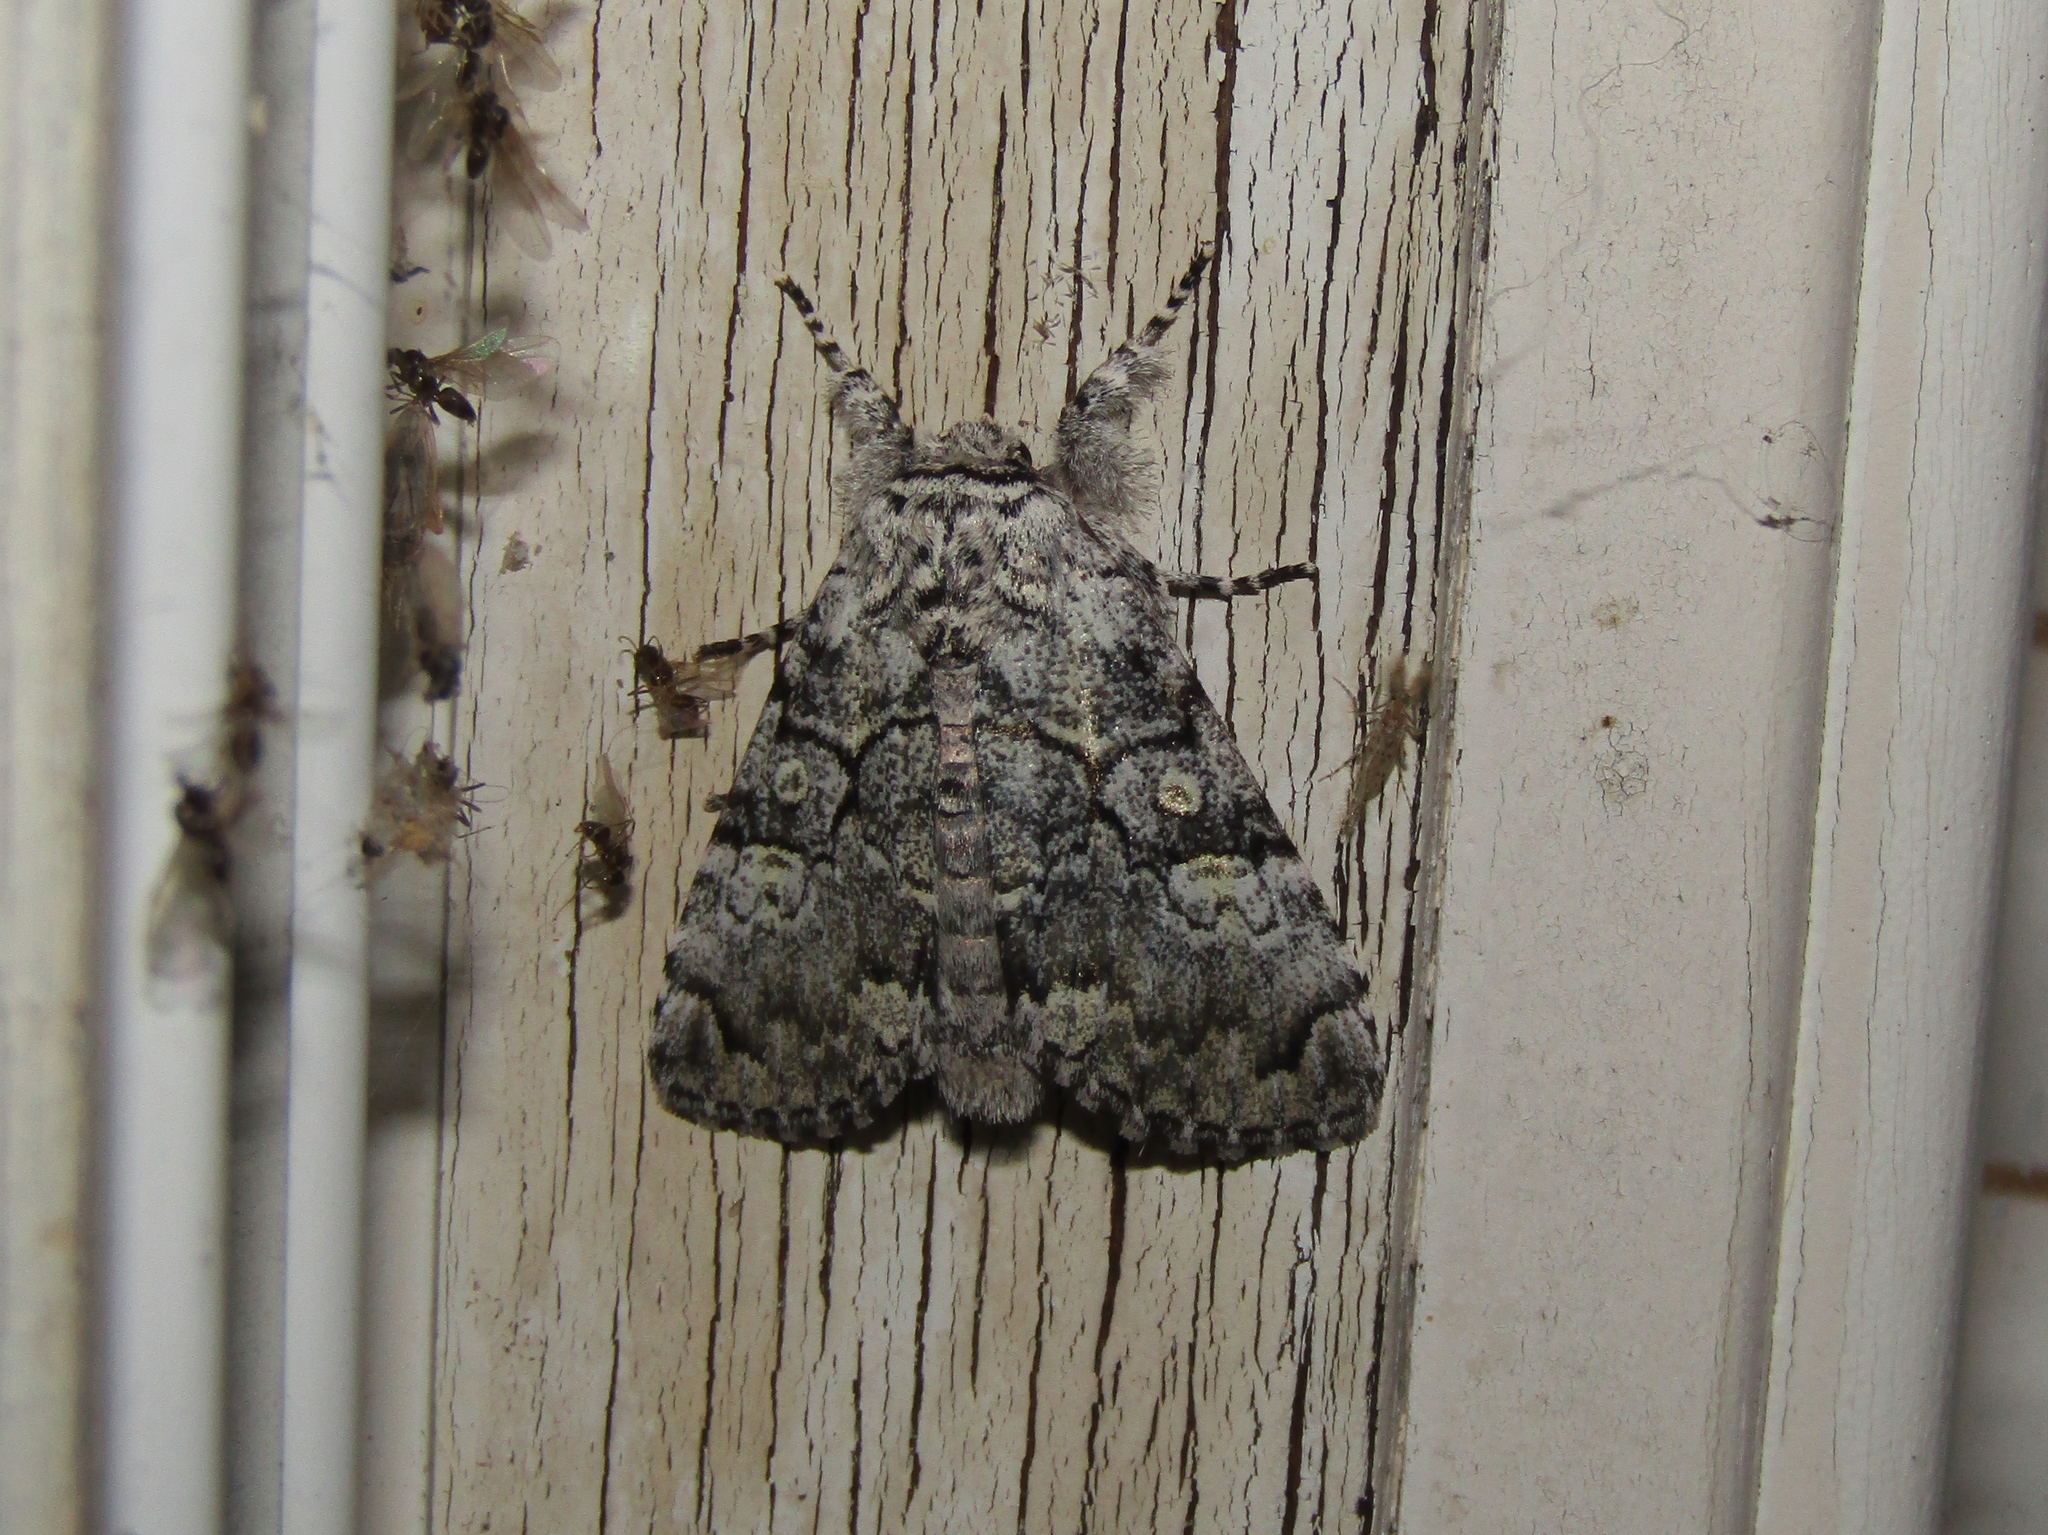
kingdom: Animalia
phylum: Arthropoda
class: Insecta
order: Lepidoptera
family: Noctuidae
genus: Charadra
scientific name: Charadra deridens
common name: Marbled tuffet
